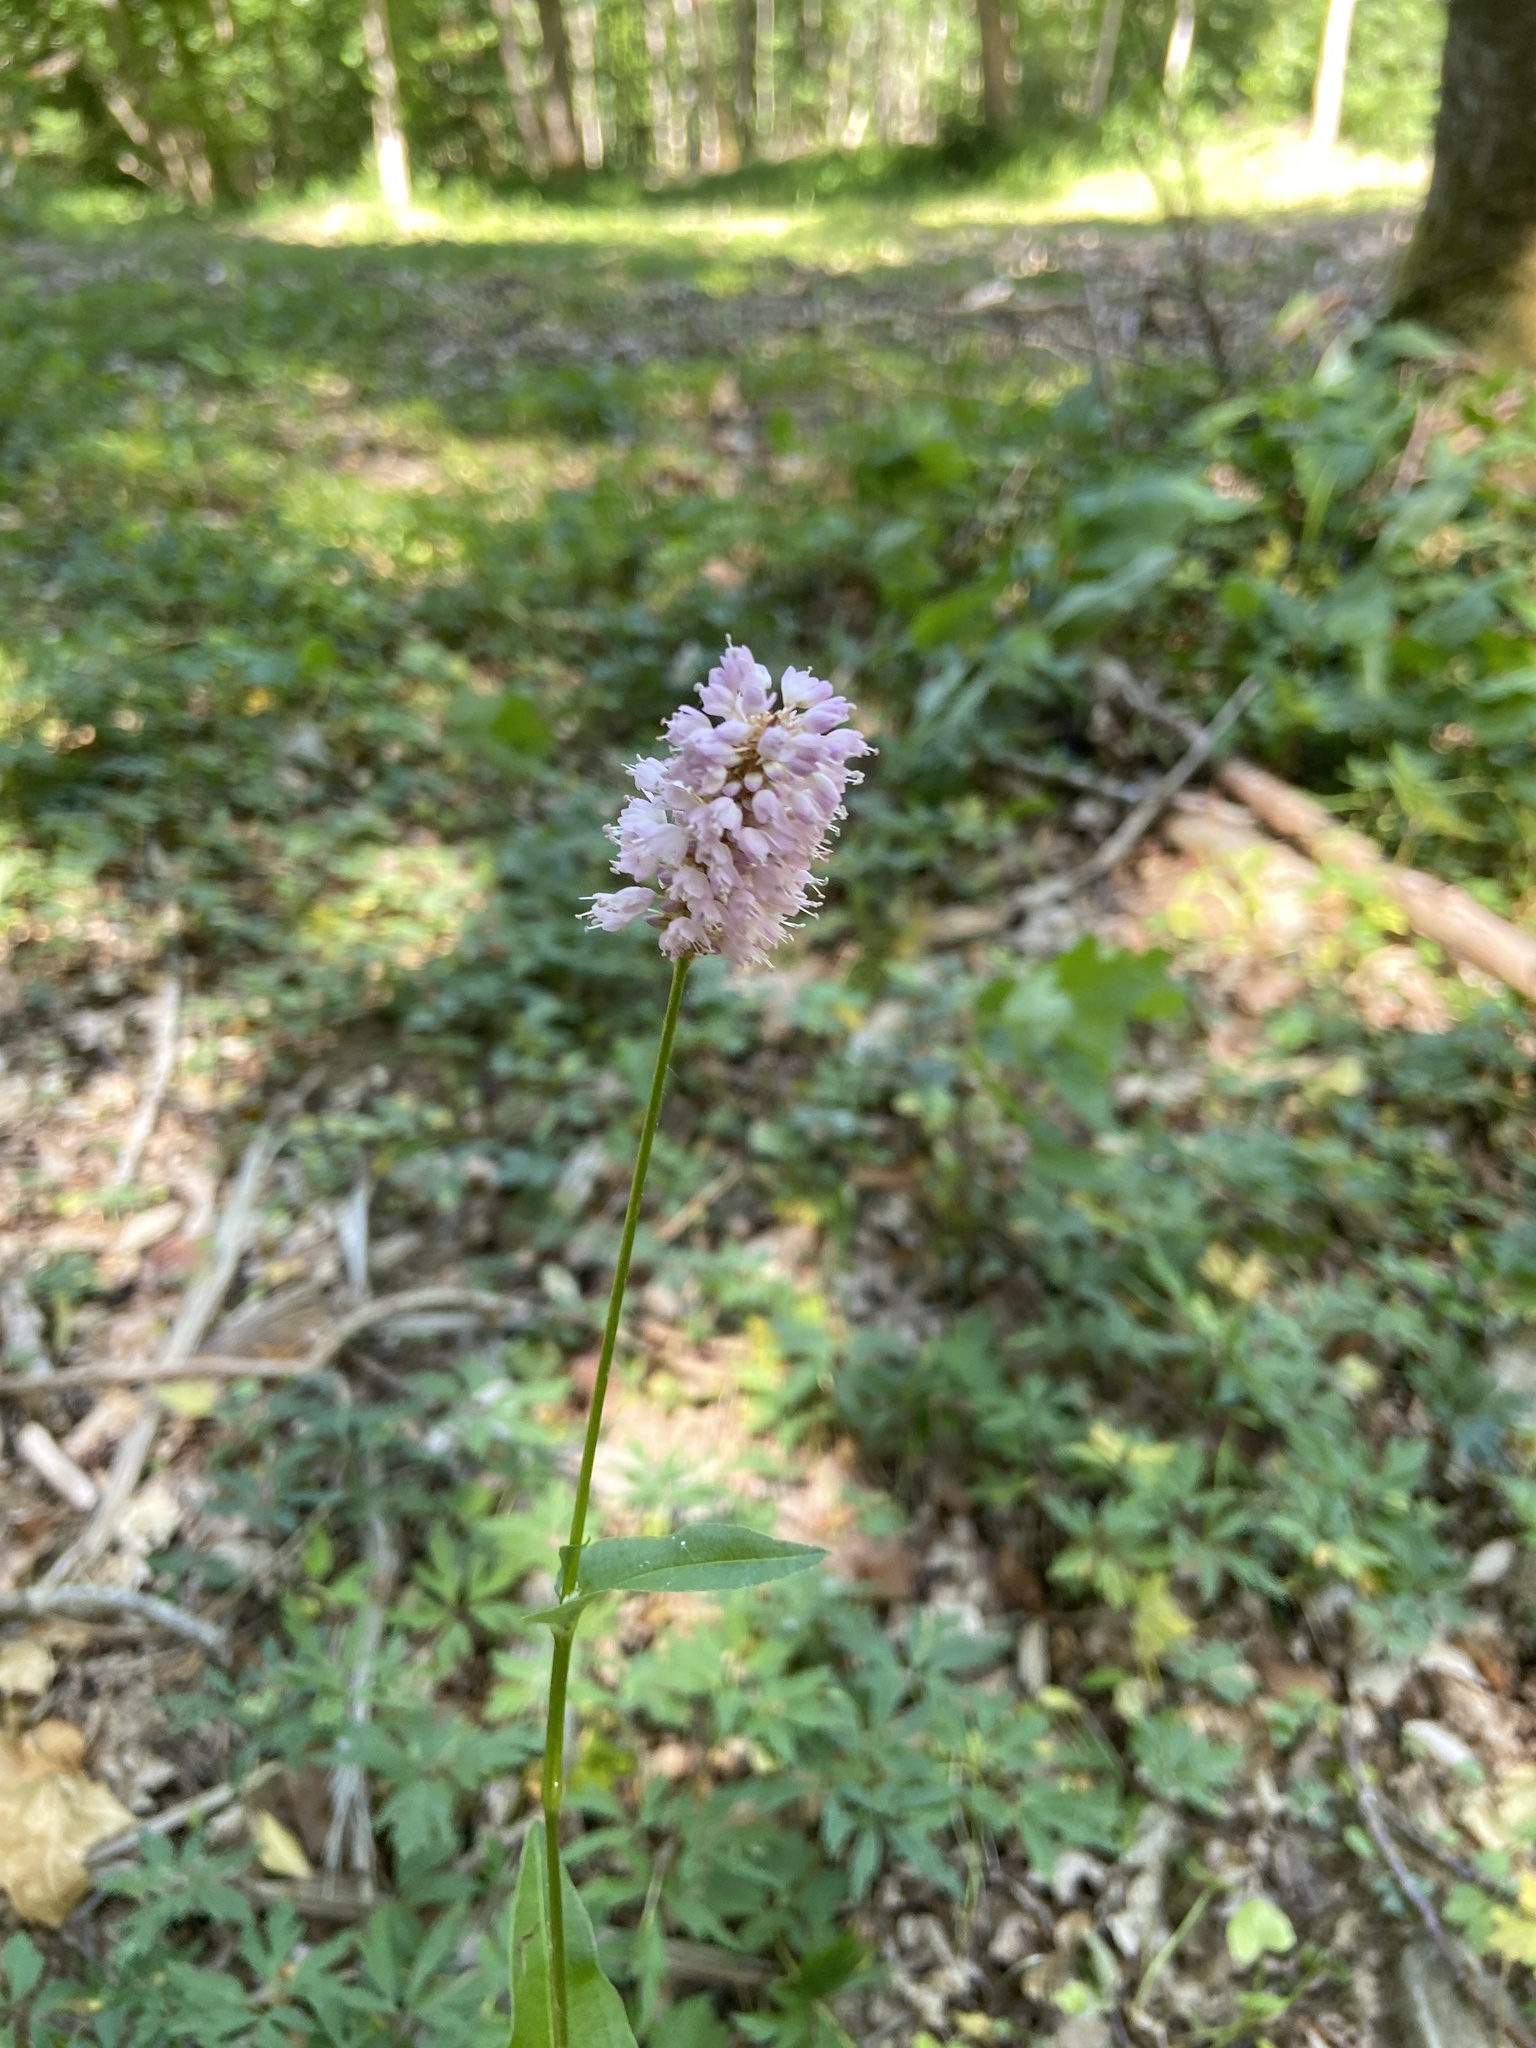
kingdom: Plantae
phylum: Tracheophyta
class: Magnoliopsida
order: Caryophyllales
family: Polygonaceae
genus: Bistorta
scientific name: Bistorta officinalis
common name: Common bistort
